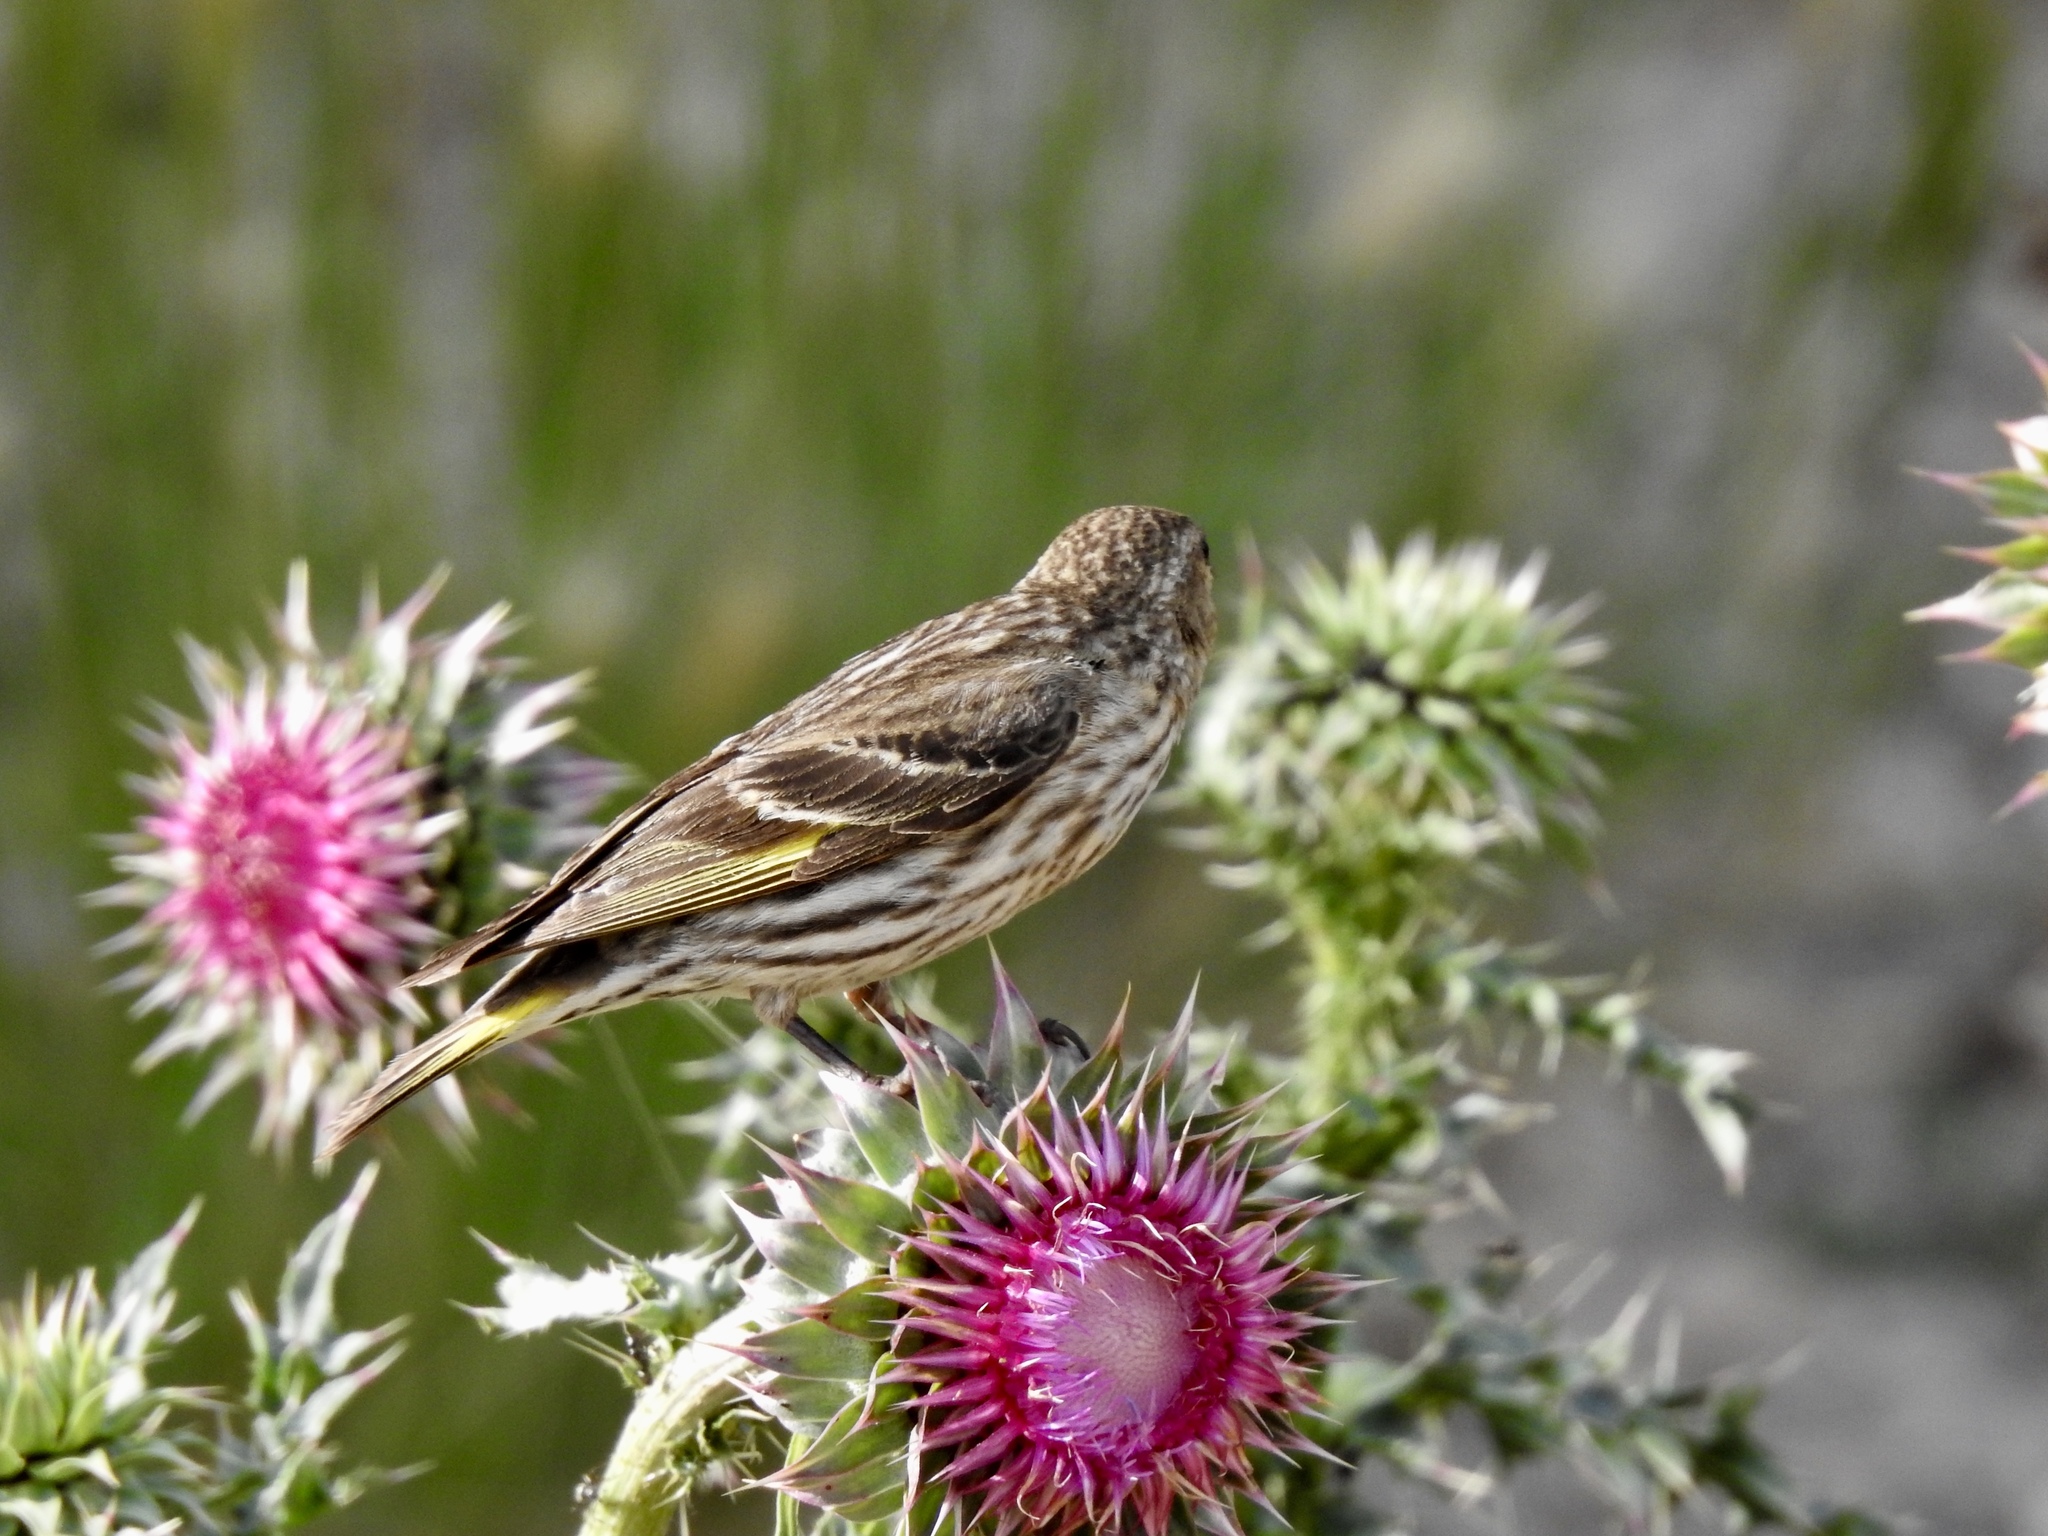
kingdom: Animalia
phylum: Chordata
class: Aves
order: Passeriformes
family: Fringillidae
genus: Spinus
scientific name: Spinus pinus
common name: Pine siskin
